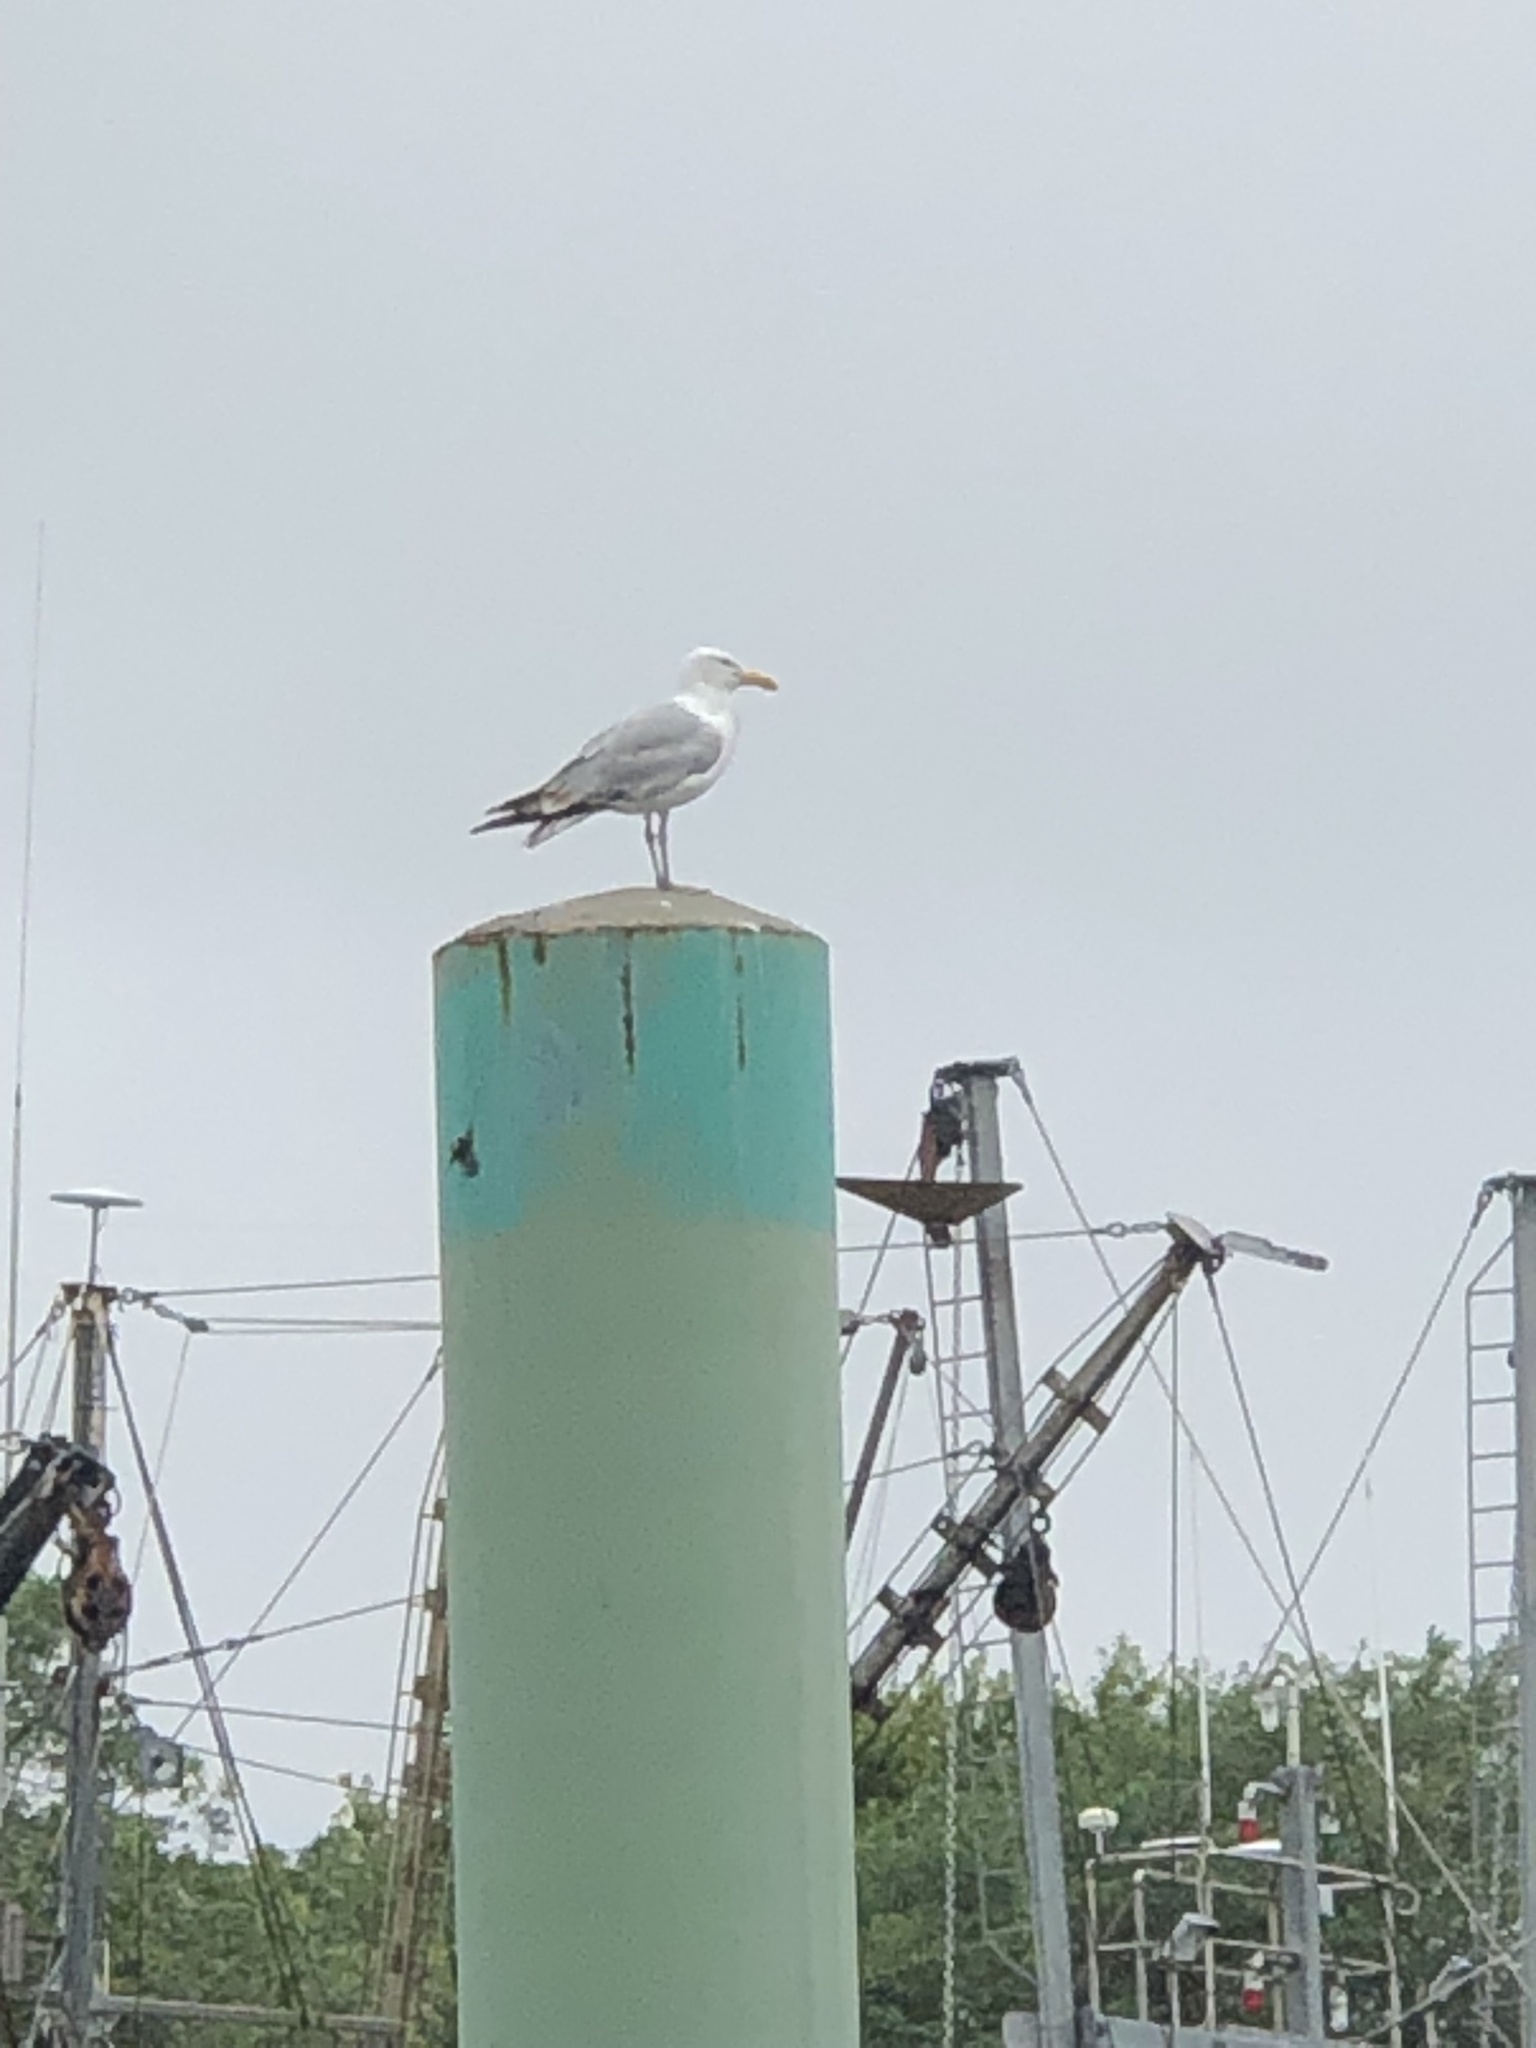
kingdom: Animalia
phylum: Chordata
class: Aves
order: Charadriiformes
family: Laridae
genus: Larus
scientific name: Larus argentatus
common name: Herring gull
